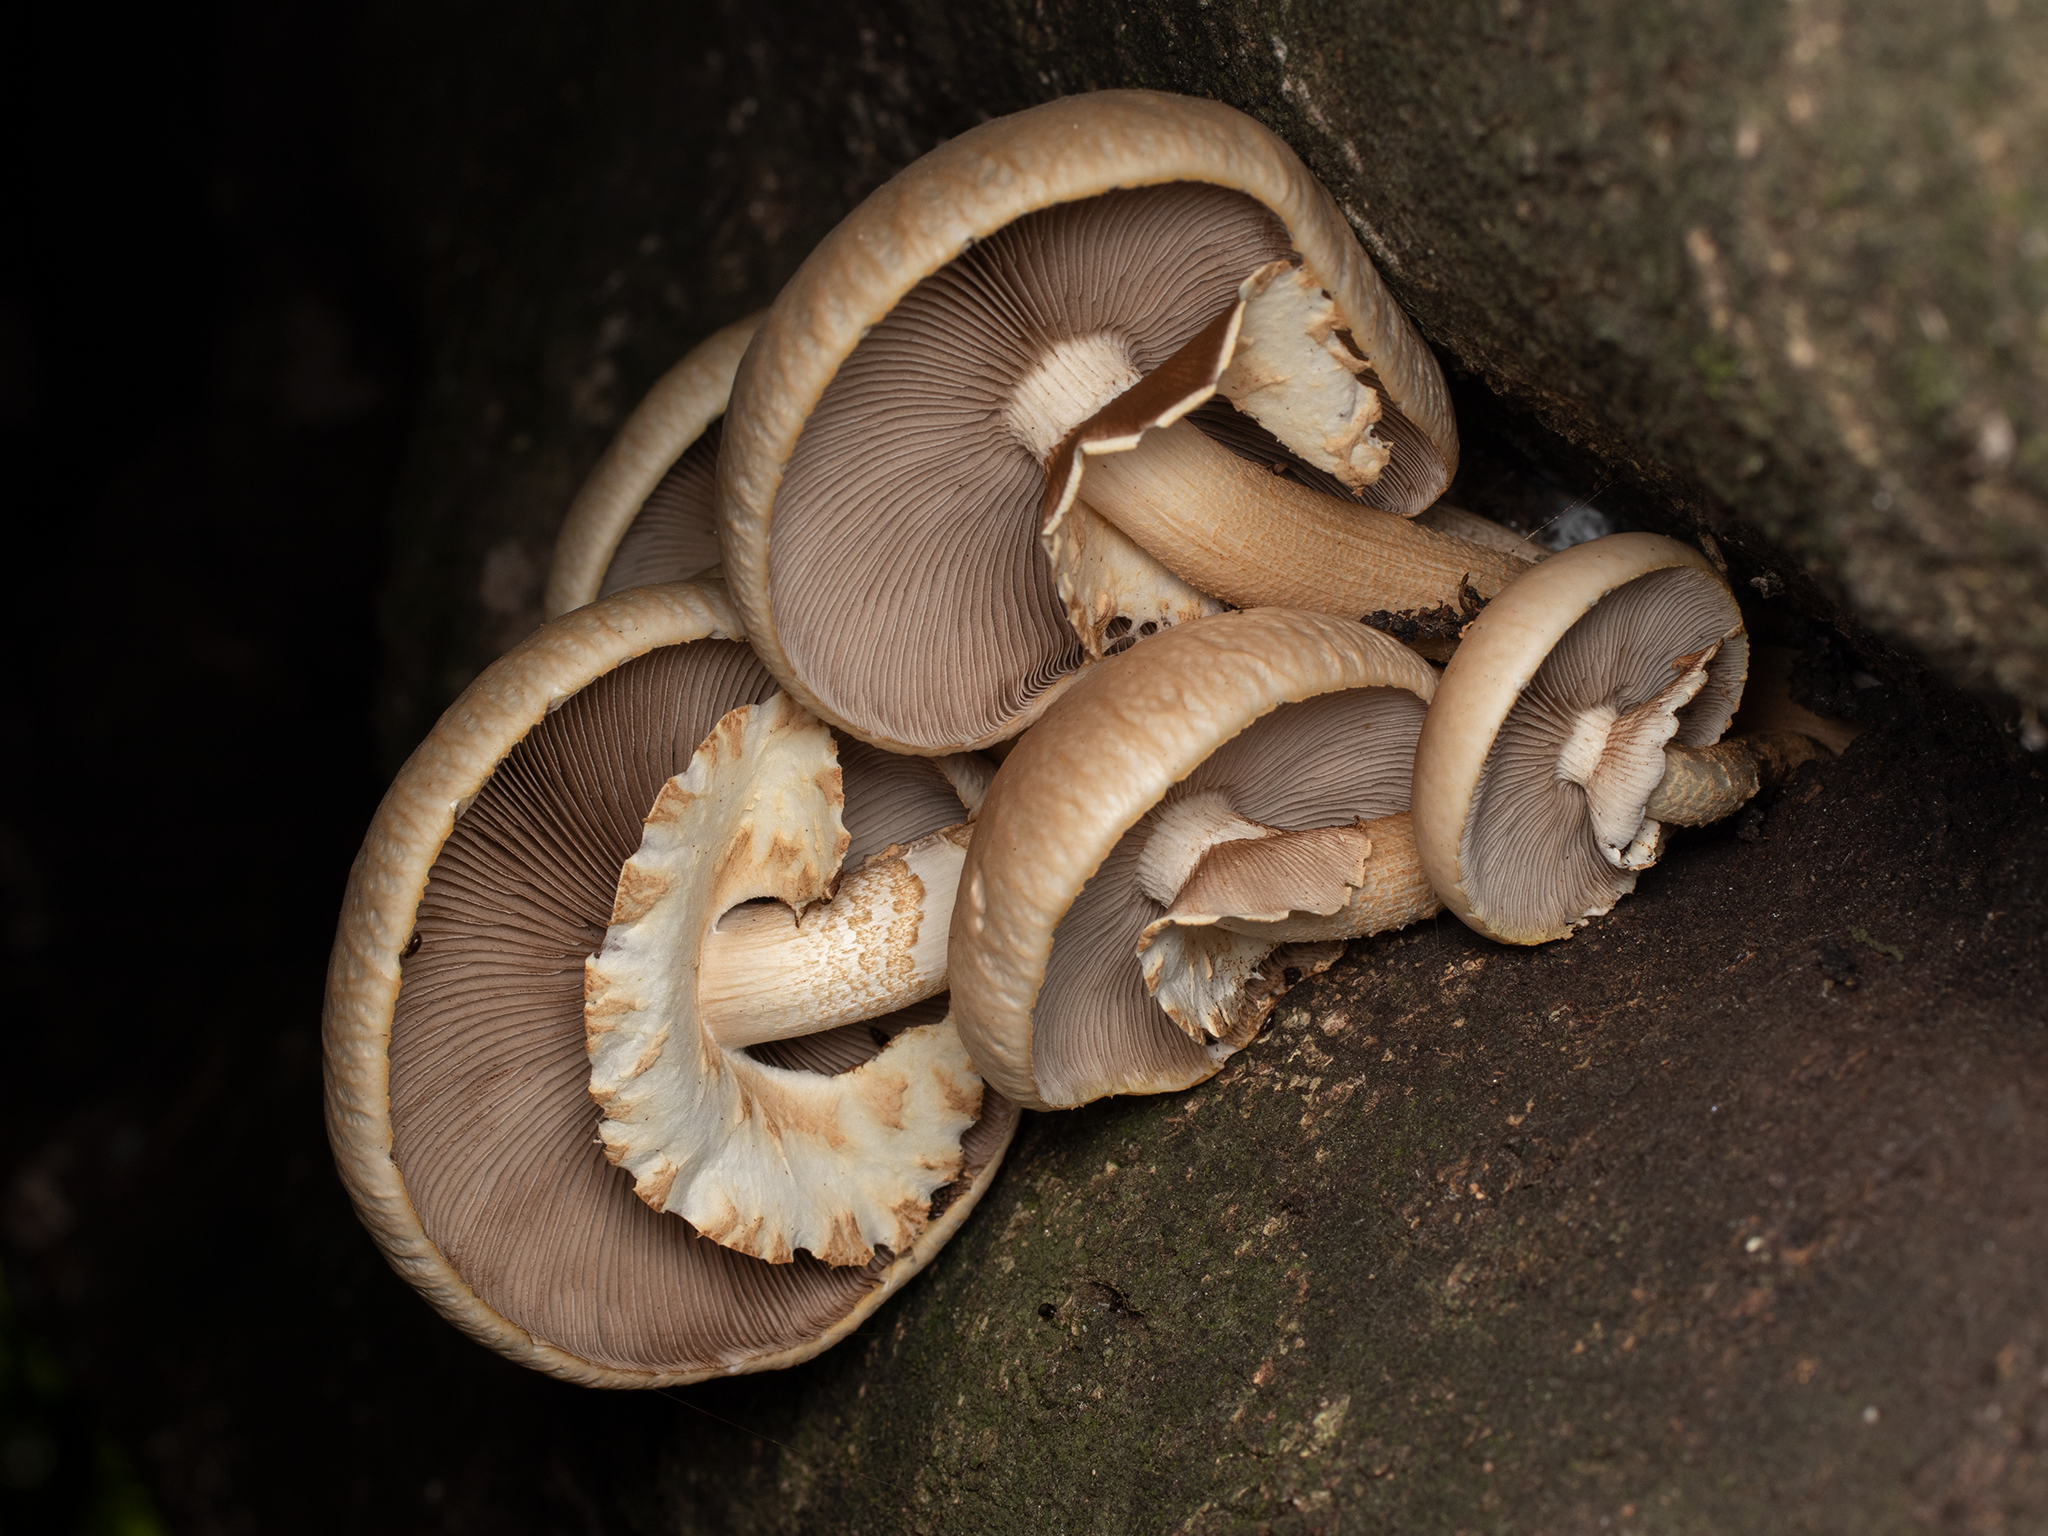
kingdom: Fungi
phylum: Basidiomycota
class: Agaricomycetes
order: Agaricales
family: Tubariaceae
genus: Cyclocybe
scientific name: Cyclocybe parasitica
